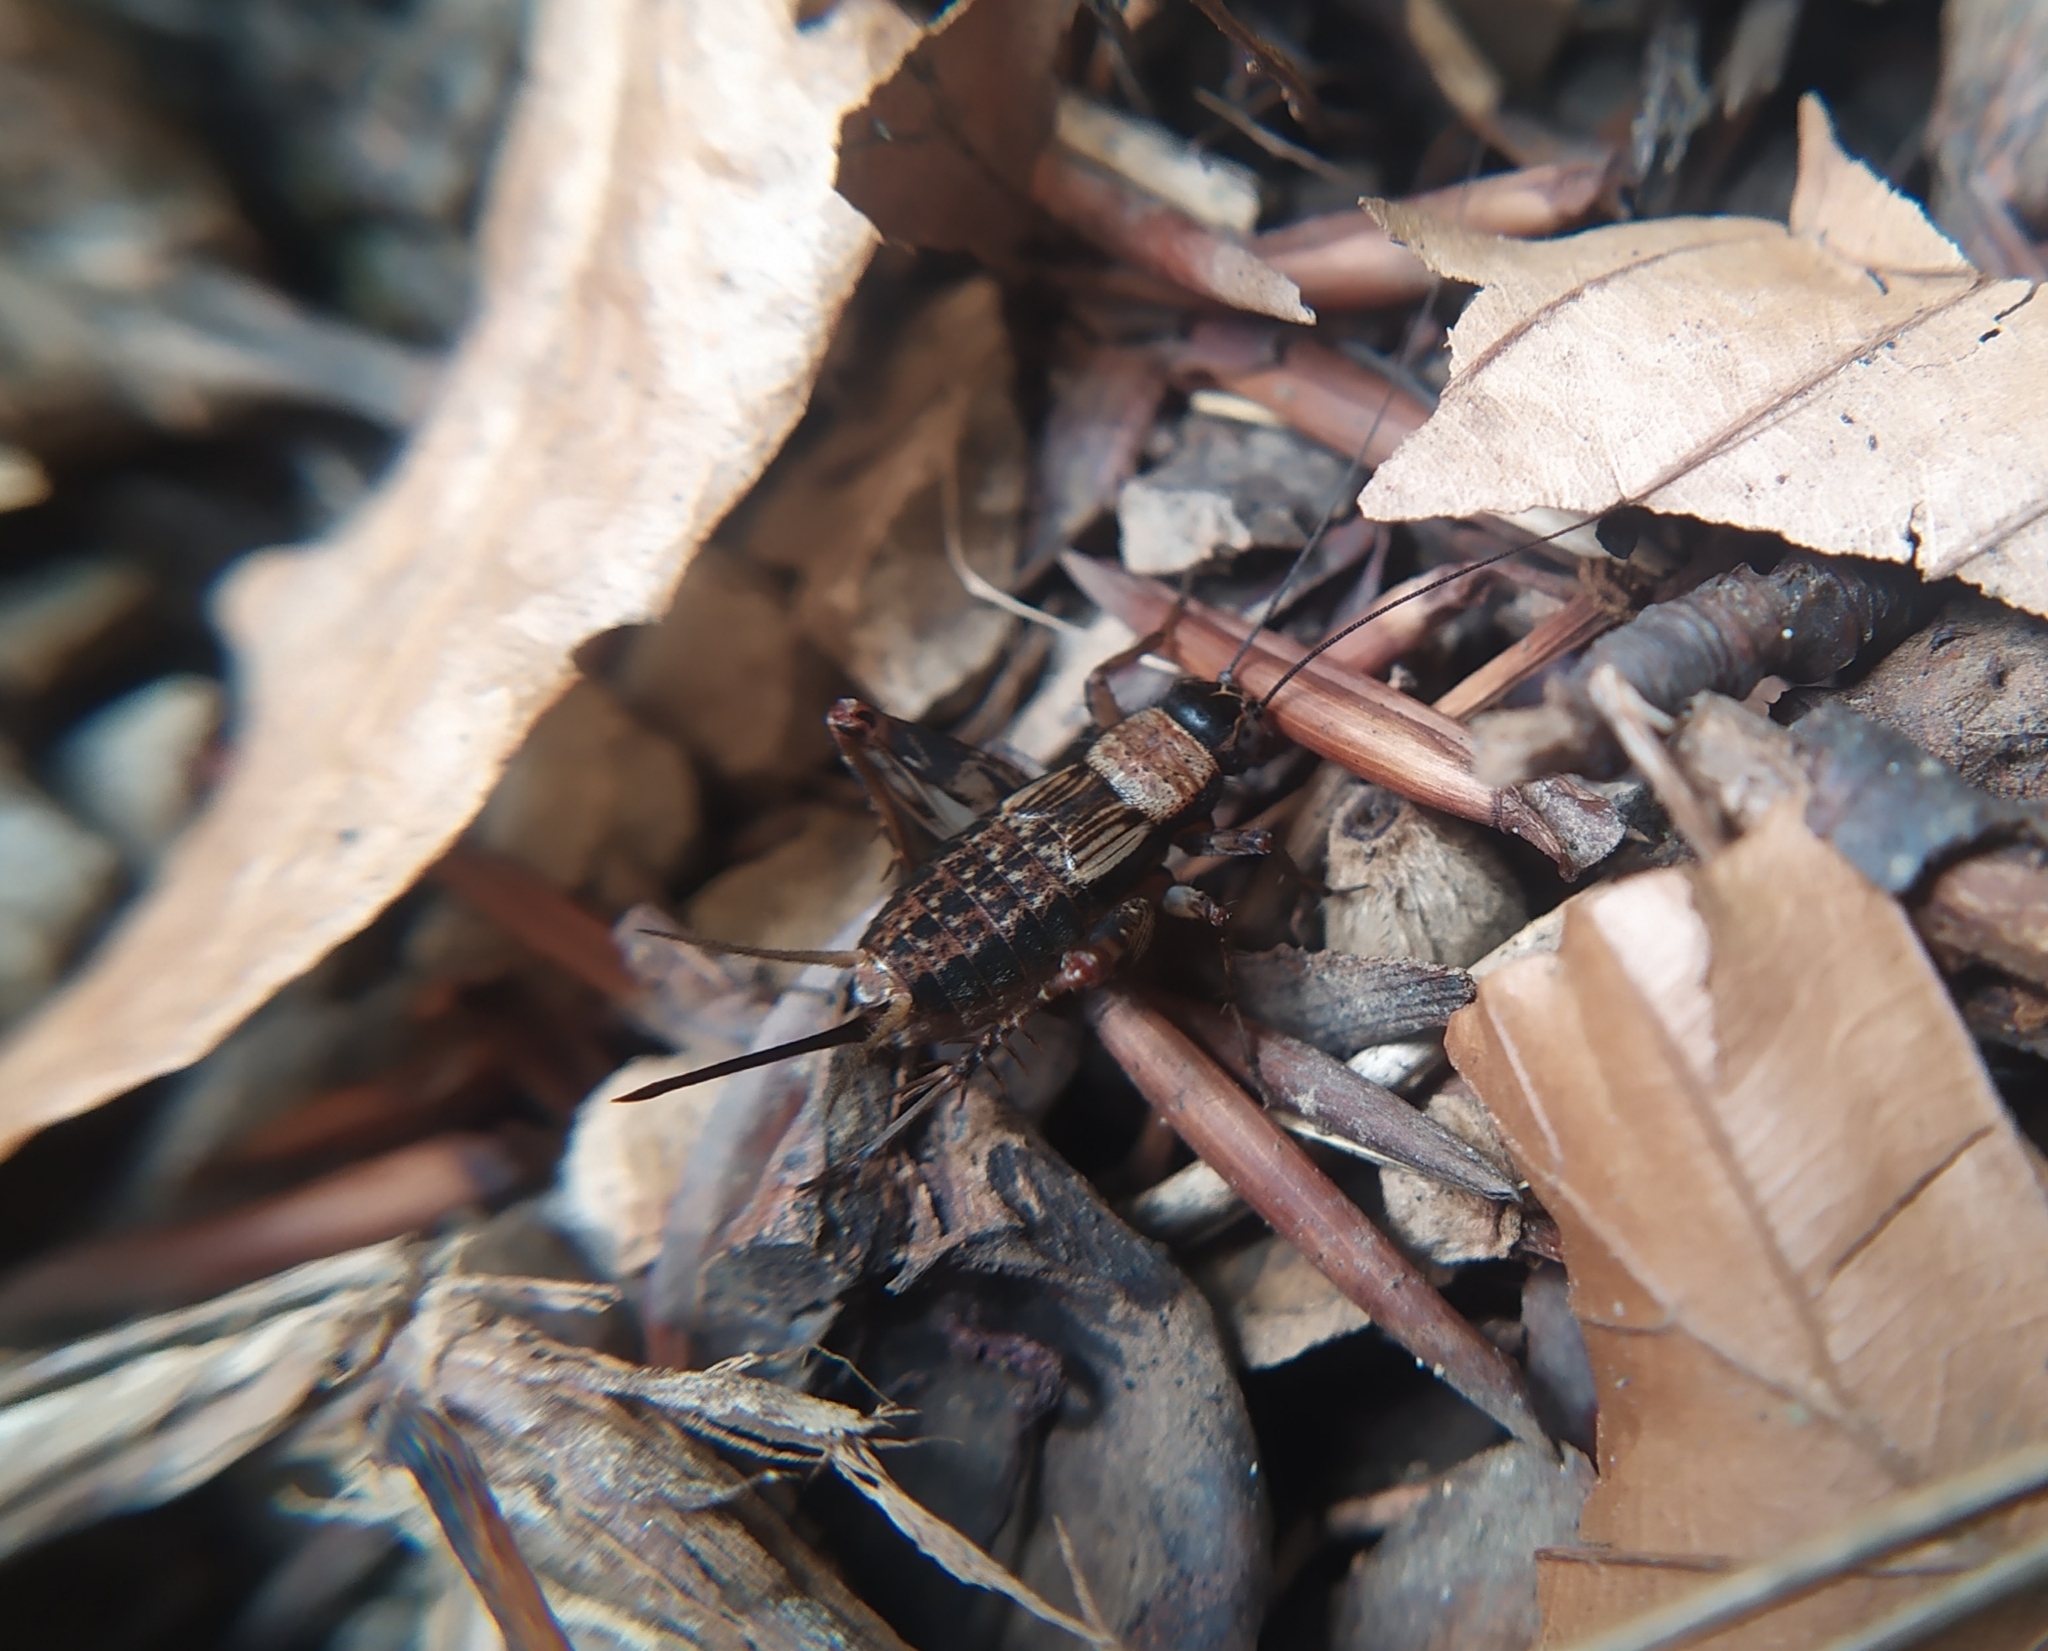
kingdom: Animalia
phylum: Arthropoda
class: Insecta
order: Orthoptera
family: Trigonidiidae
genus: Nemobius
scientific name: Nemobius sylvestris
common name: Wood-cricket
